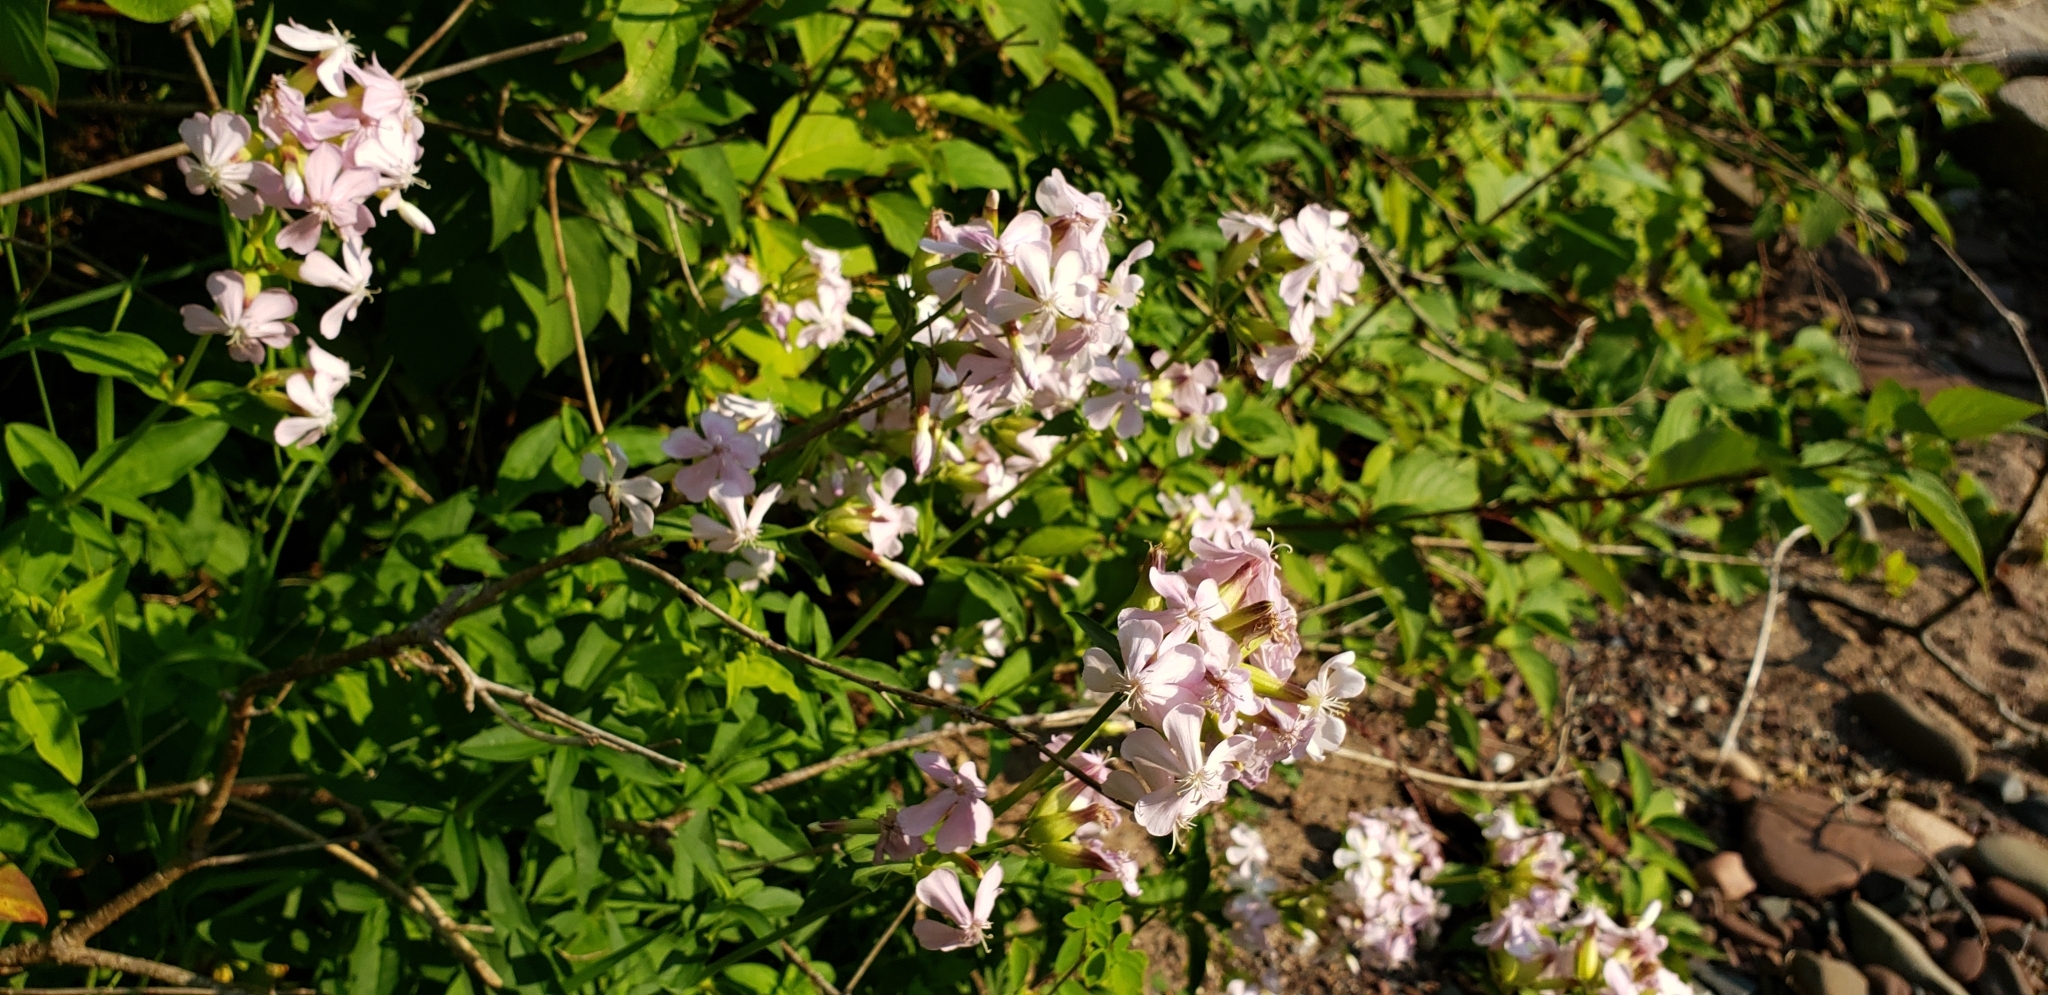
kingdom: Plantae
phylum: Tracheophyta
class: Magnoliopsida
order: Caryophyllales
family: Caryophyllaceae
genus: Saponaria
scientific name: Saponaria officinalis
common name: Soapwort
